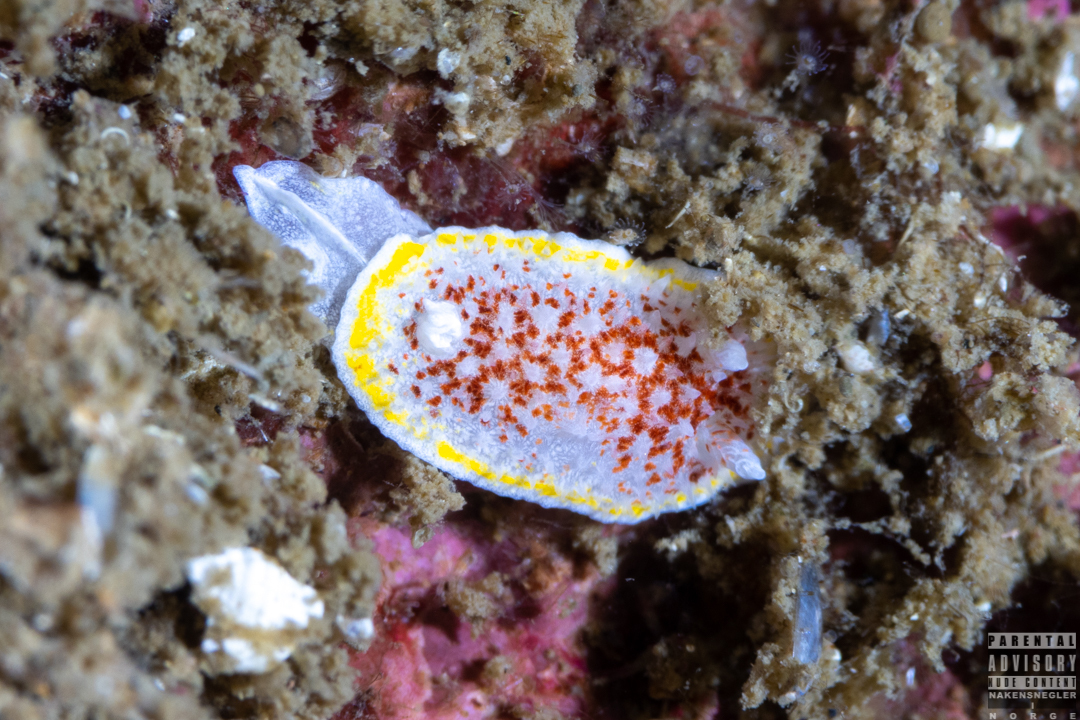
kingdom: Animalia
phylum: Mollusca
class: Gastropoda
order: Nudibranchia
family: Calycidorididae
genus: Diaphorodoris
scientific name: Diaphorodoris luteocincta
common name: Fried egg nudibranch
